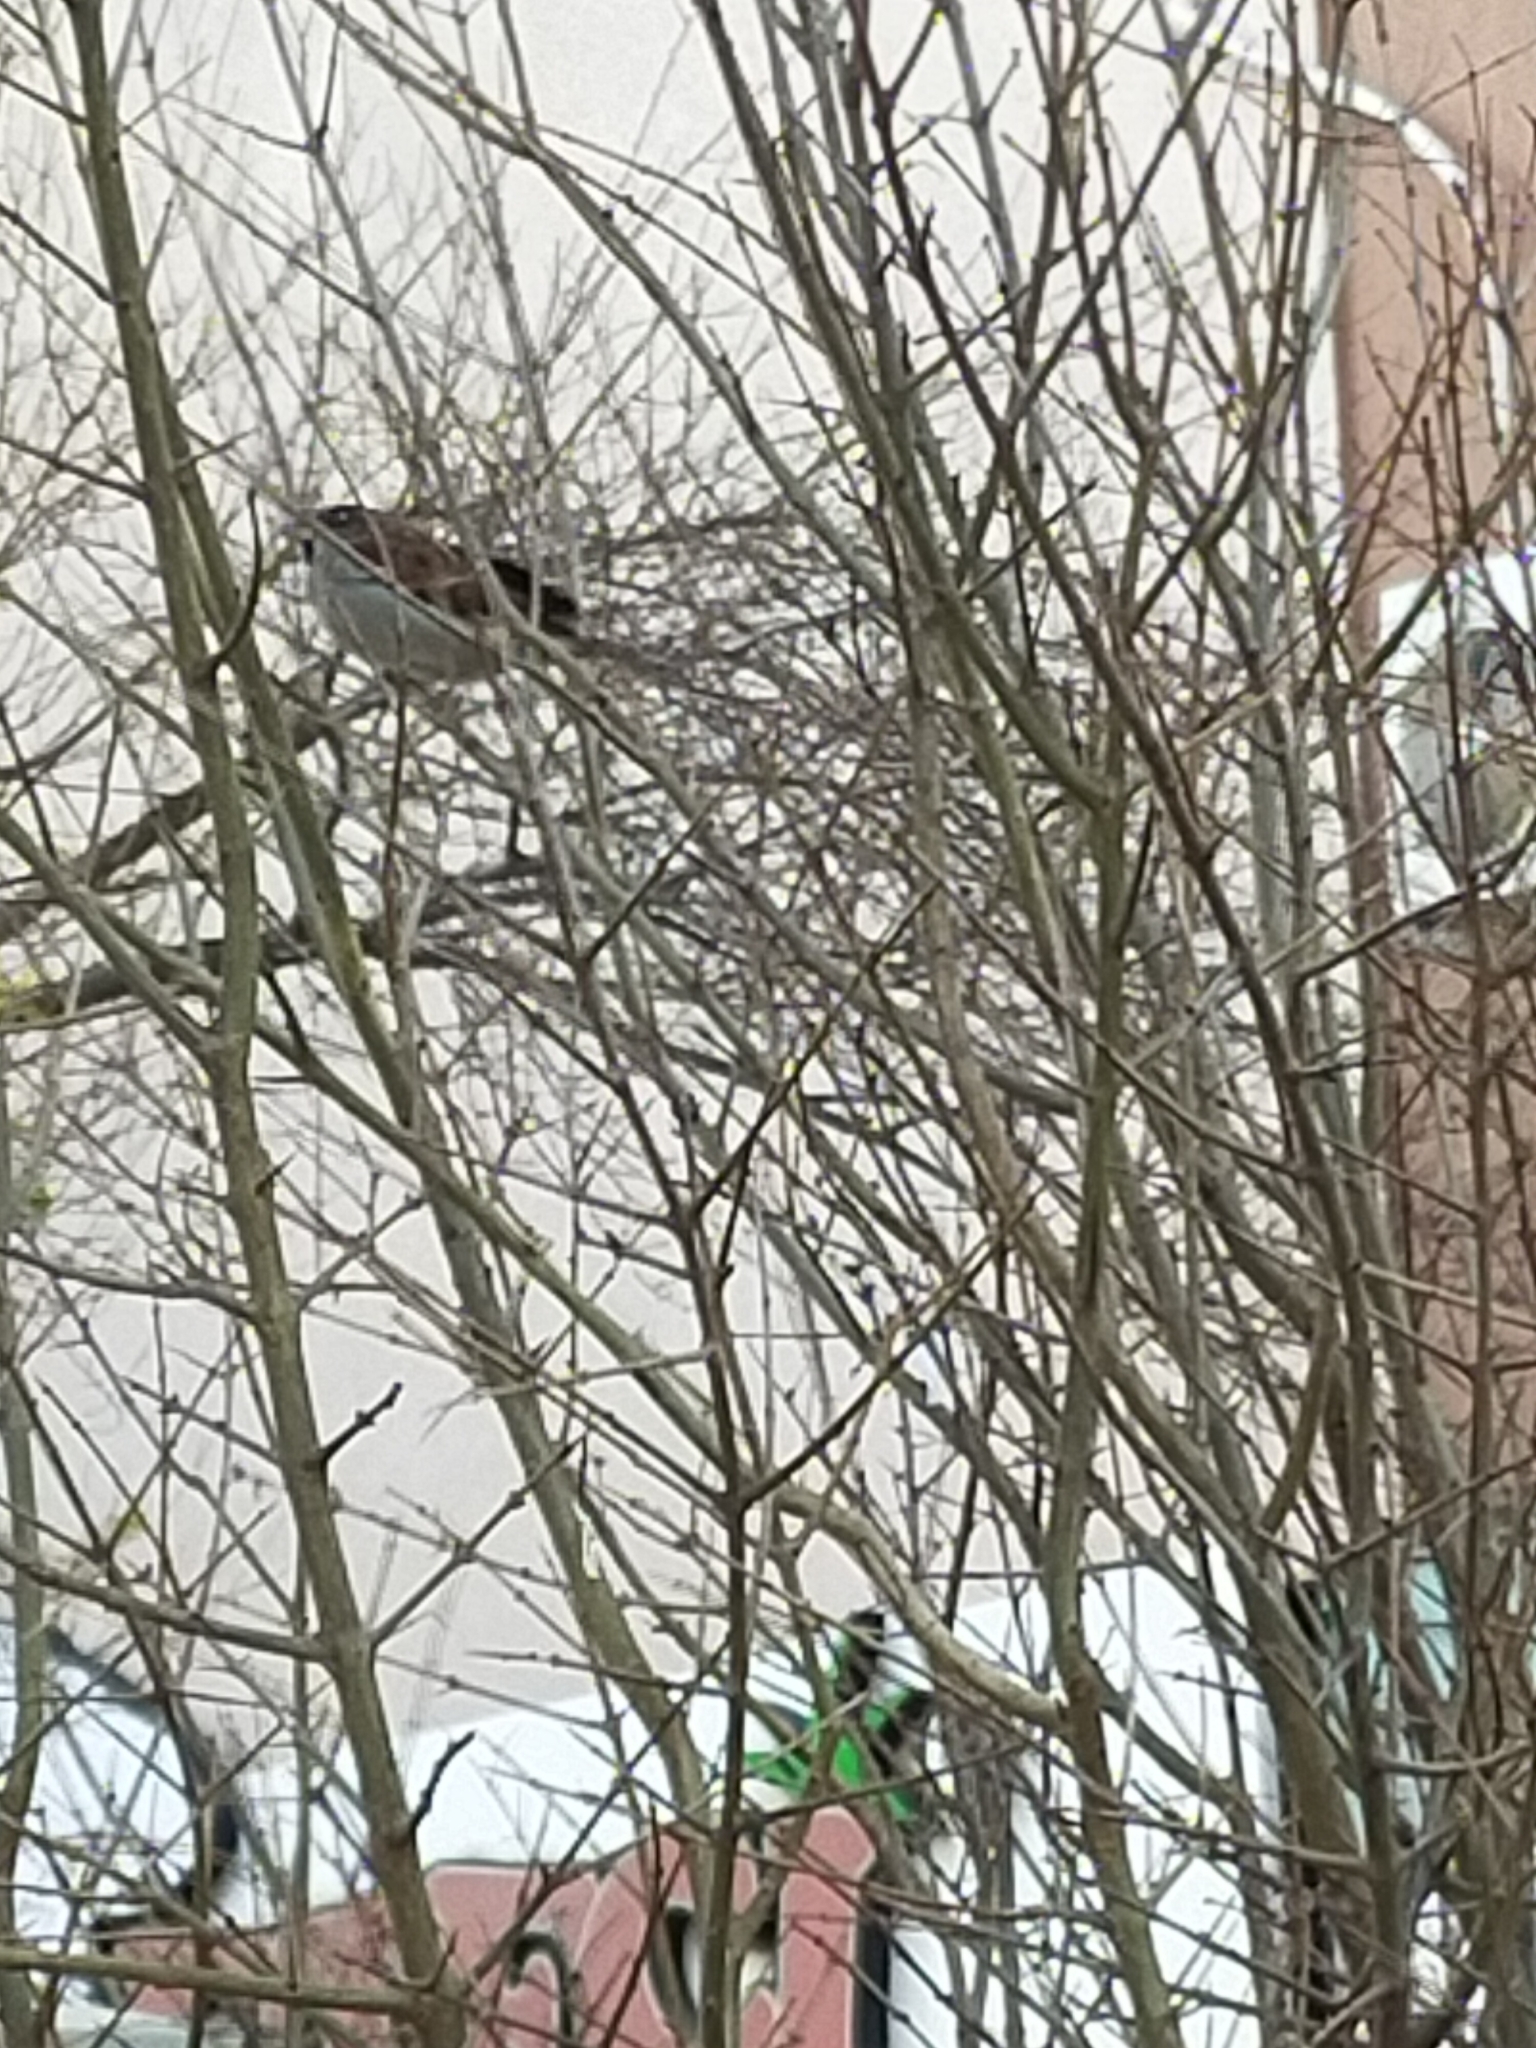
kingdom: Animalia
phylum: Chordata
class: Aves
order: Passeriformes
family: Passeridae
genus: Passer
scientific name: Passer domesticus
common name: House sparrow
